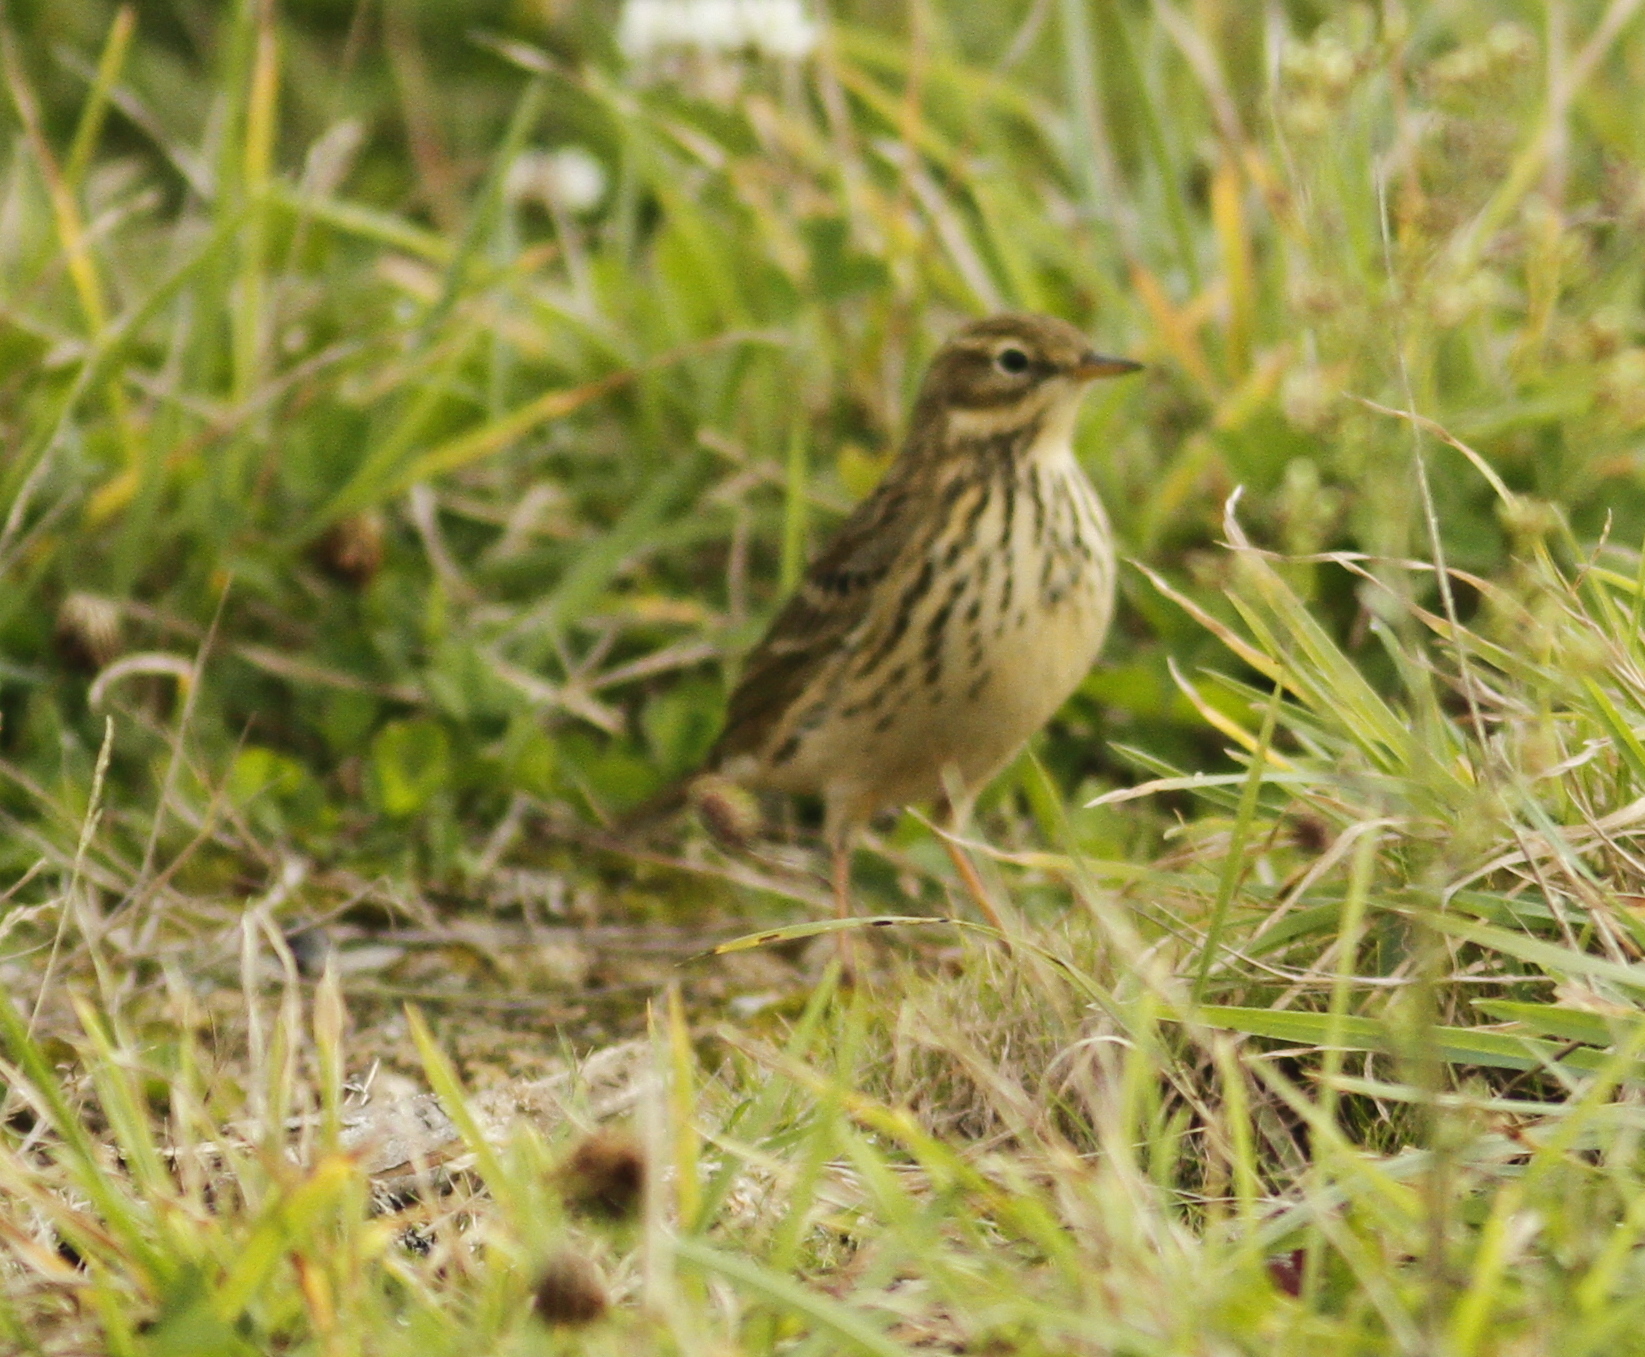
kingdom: Animalia
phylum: Chordata
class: Aves
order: Passeriformes
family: Motacillidae
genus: Anthus
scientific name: Anthus pratensis
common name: Meadow pipit
